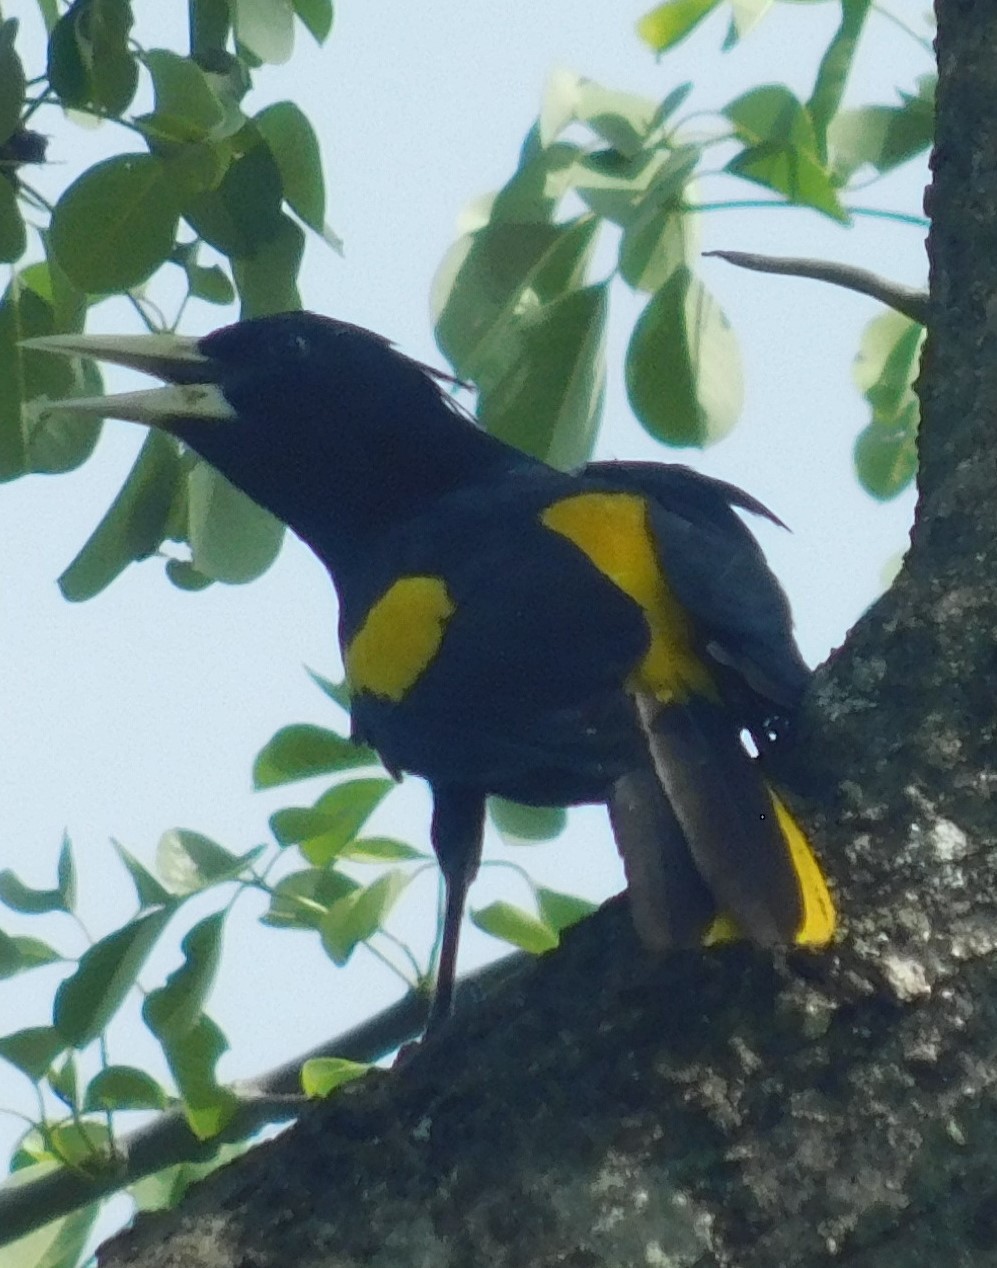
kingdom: Animalia
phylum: Chordata
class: Aves
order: Passeriformes
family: Icteridae
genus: Cacicus
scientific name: Cacicus melanicterus
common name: Yellow-winged cacique
